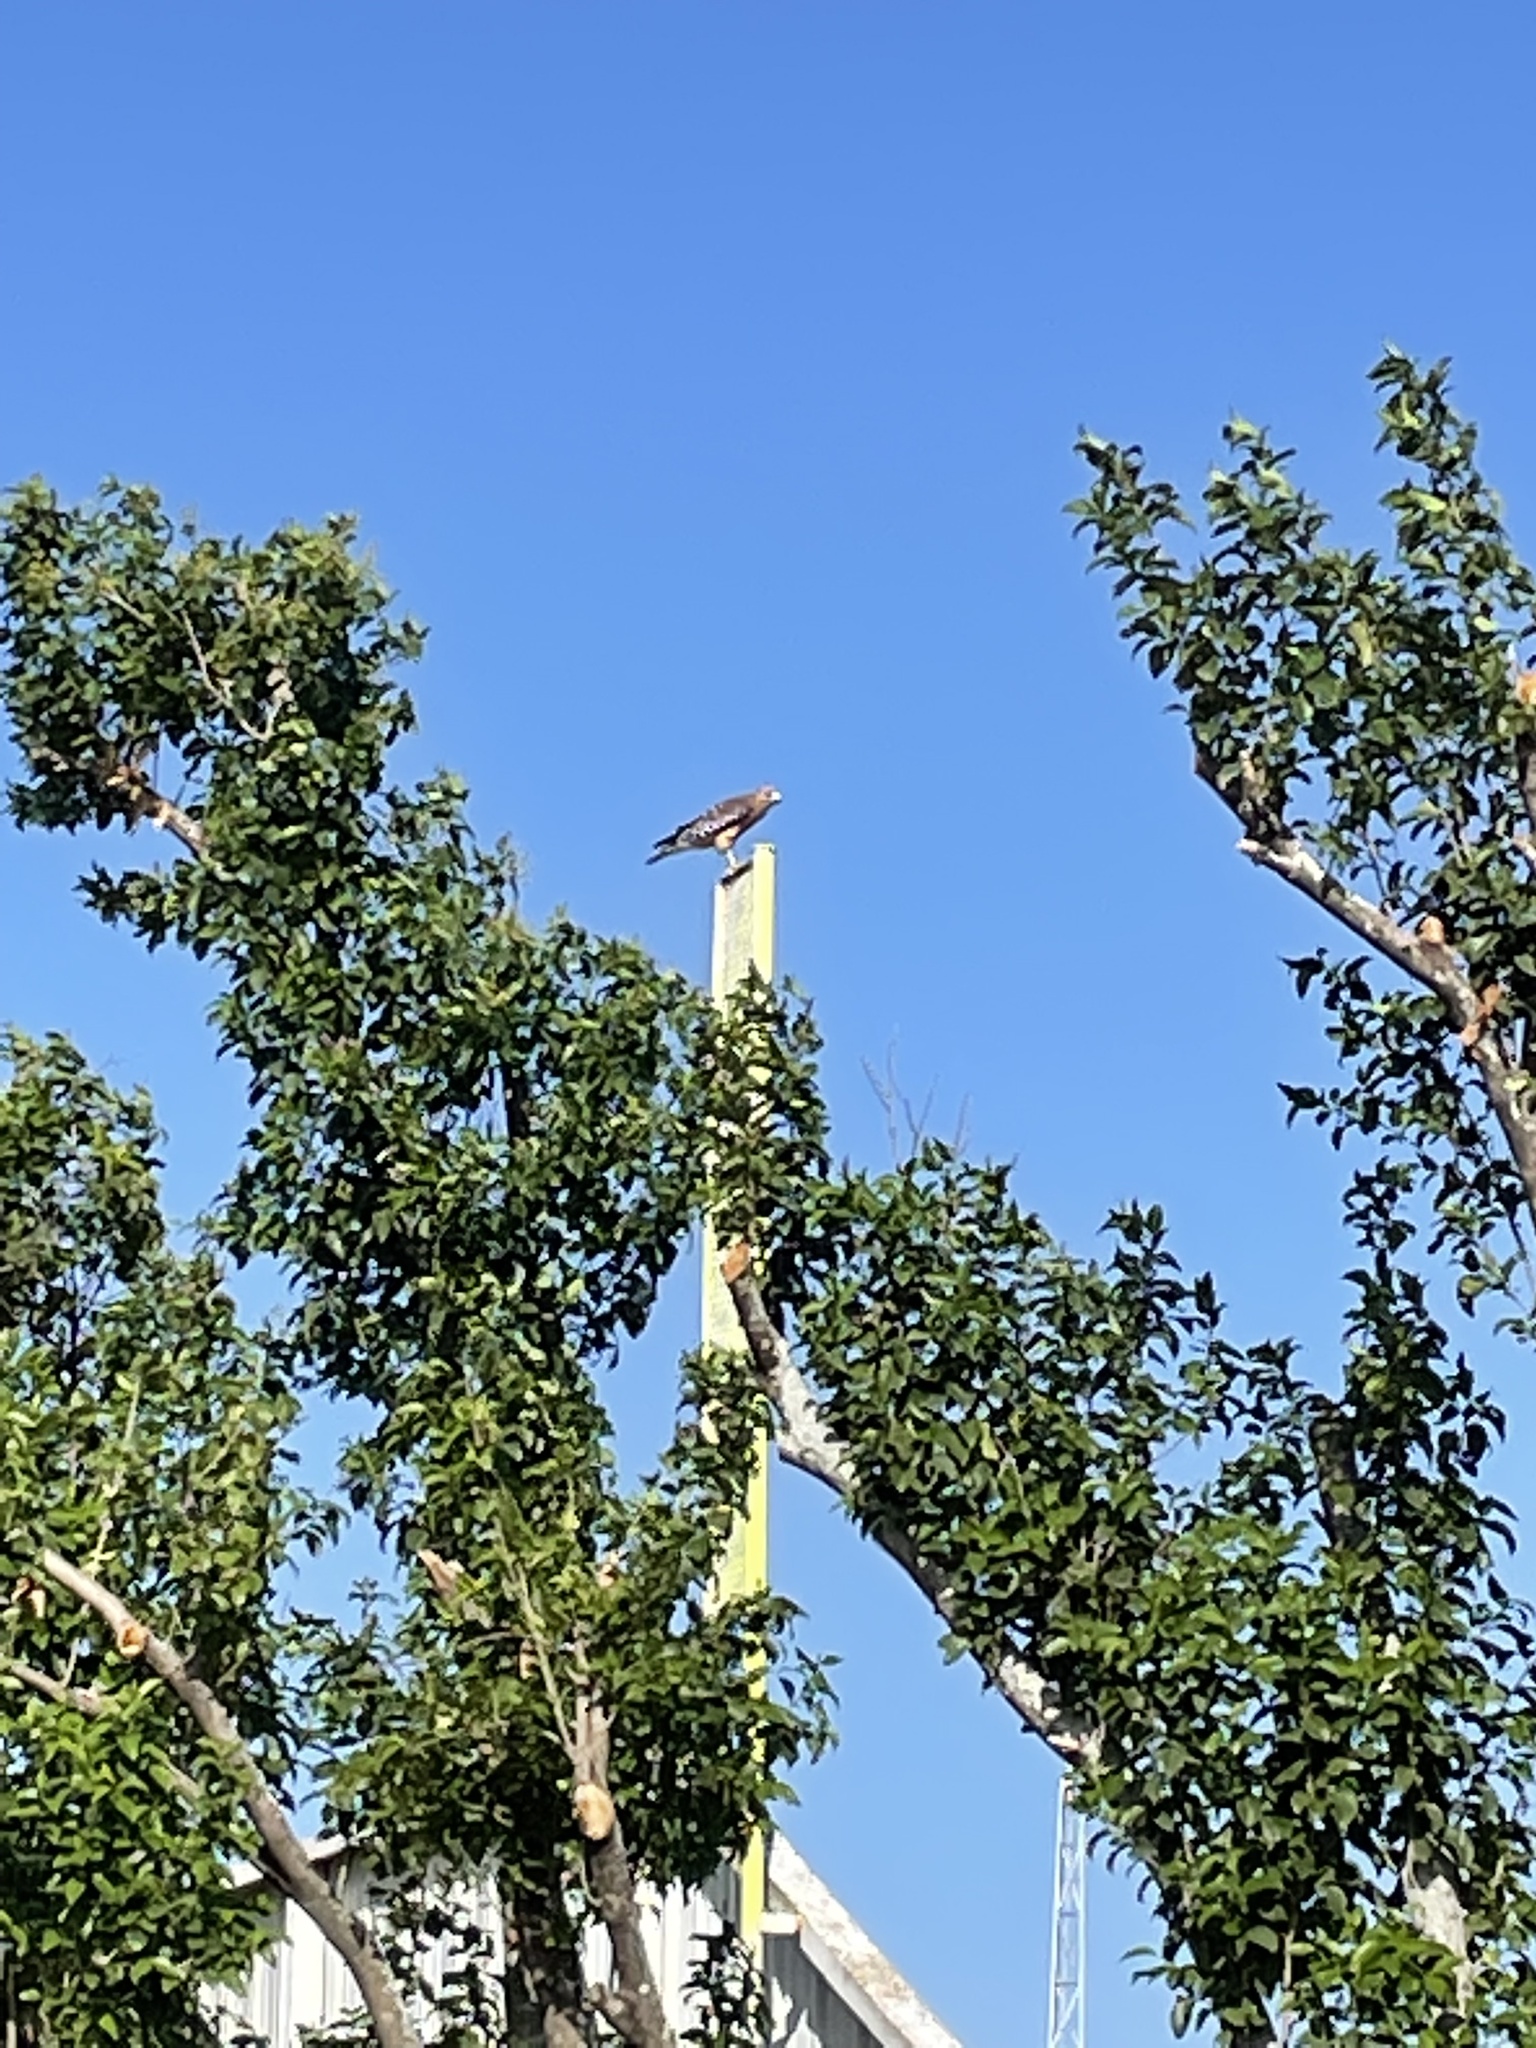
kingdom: Animalia
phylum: Chordata
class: Aves
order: Accipitriformes
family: Accipitridae
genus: Buteo
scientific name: Buteo lineatus
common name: Red-shouldered hawk
